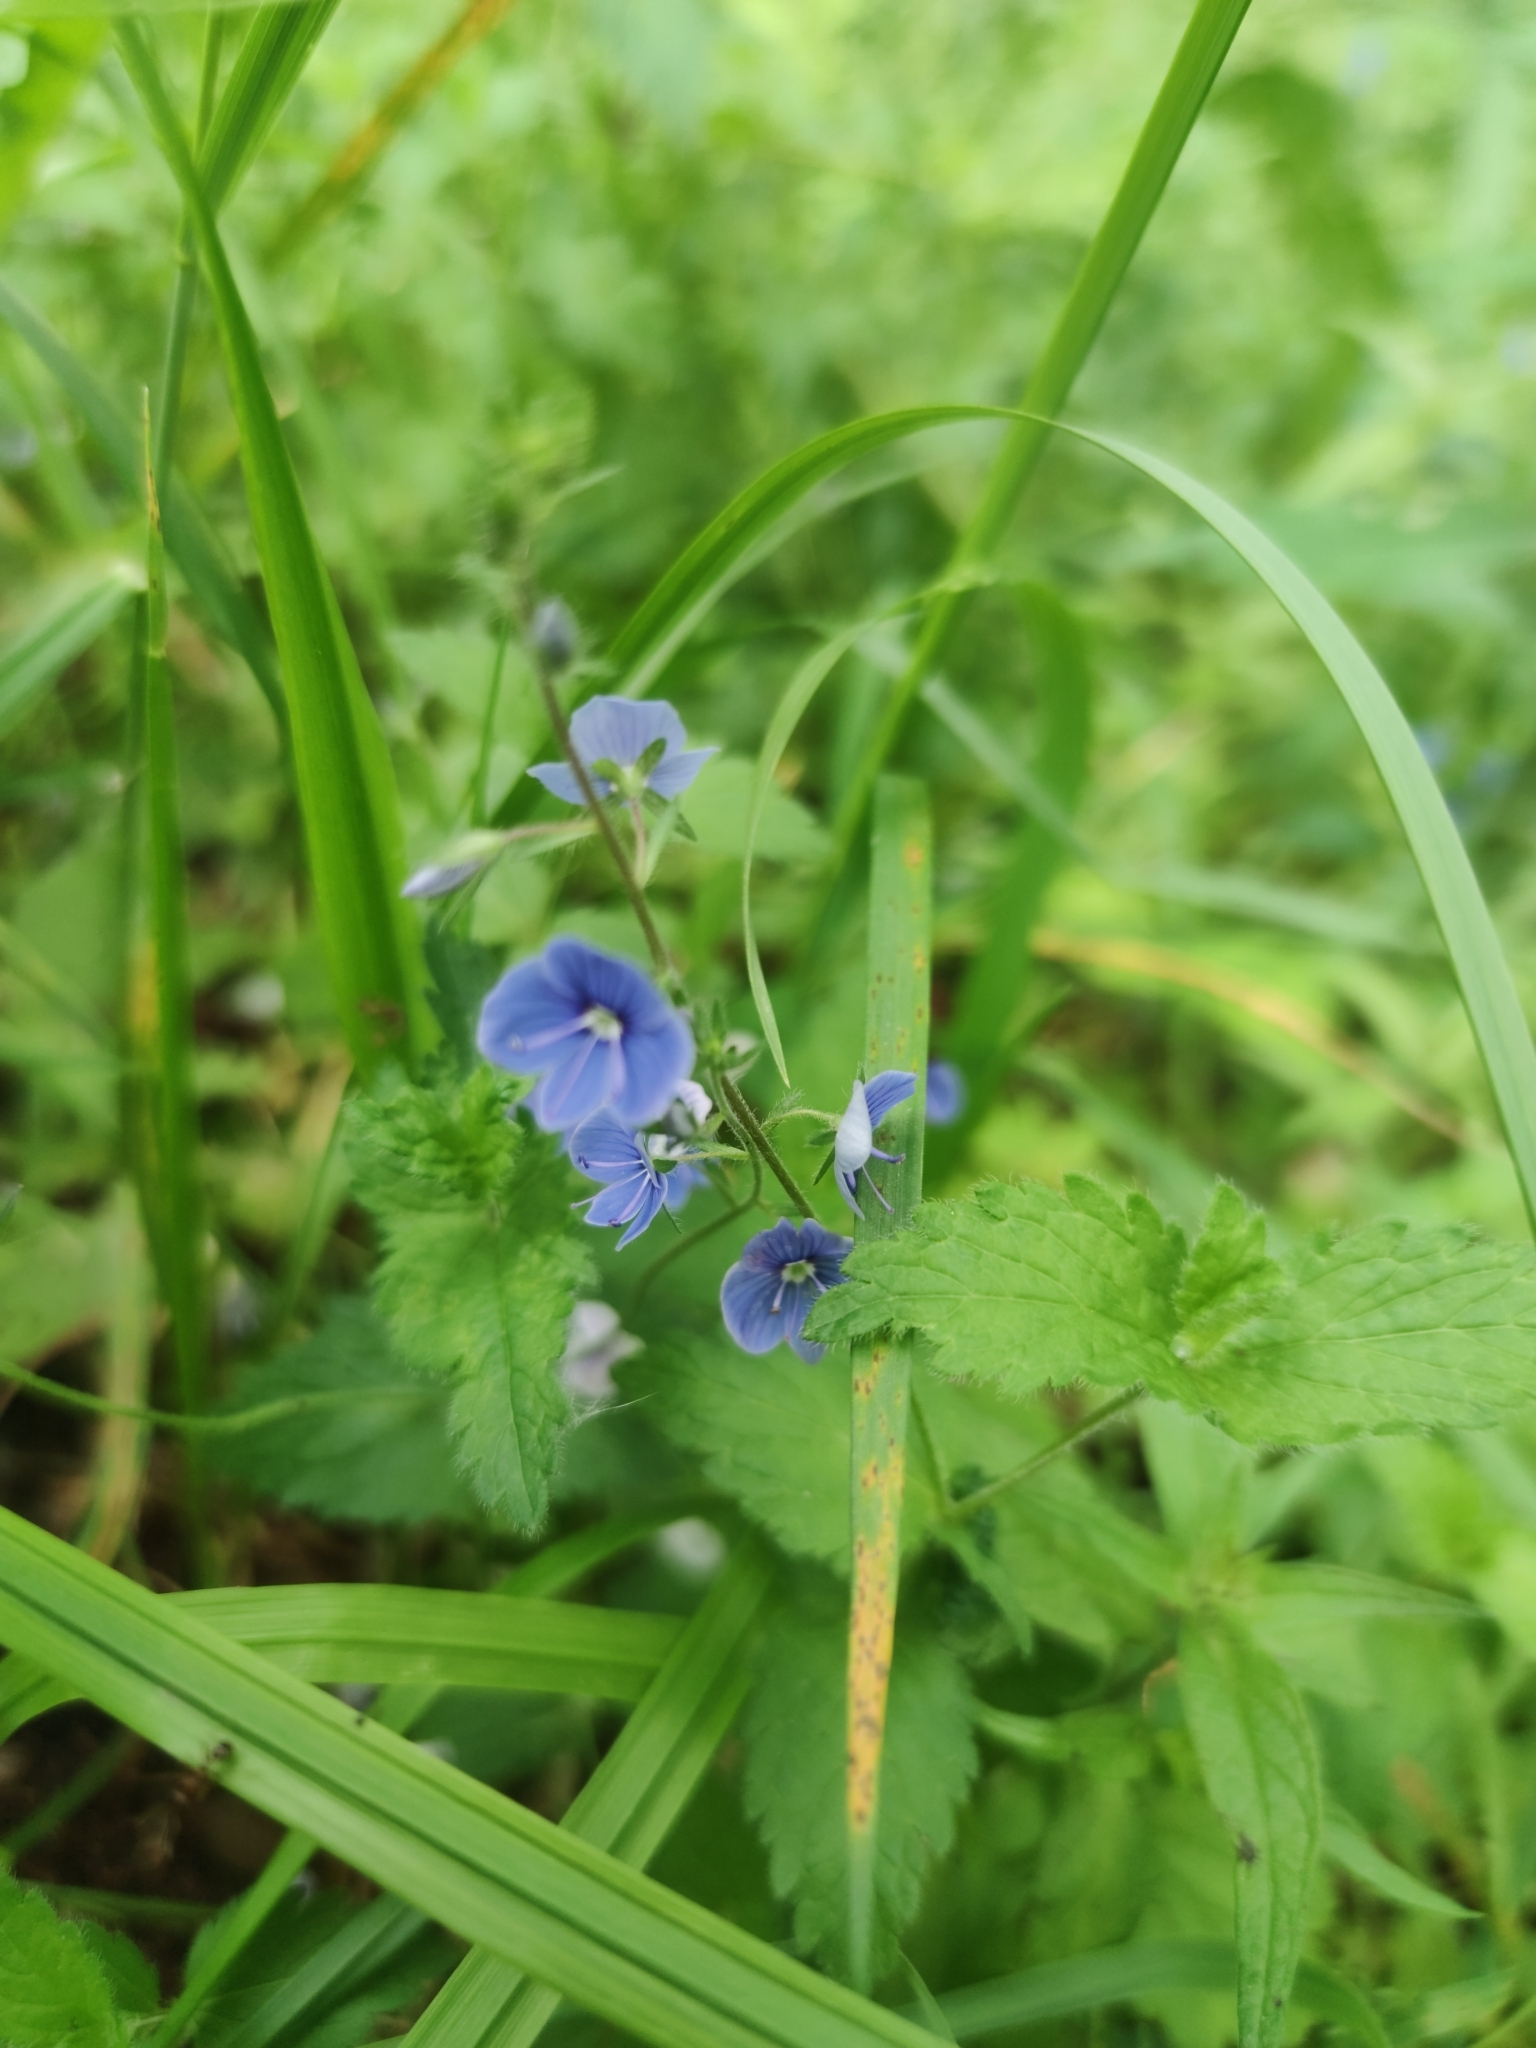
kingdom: Plantae
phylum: Tracheophyta
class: Magnoliopsida
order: Lamiales
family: Plantaginaceae
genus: Veronica
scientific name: Veronica chamaedrys
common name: Germander speedwell
